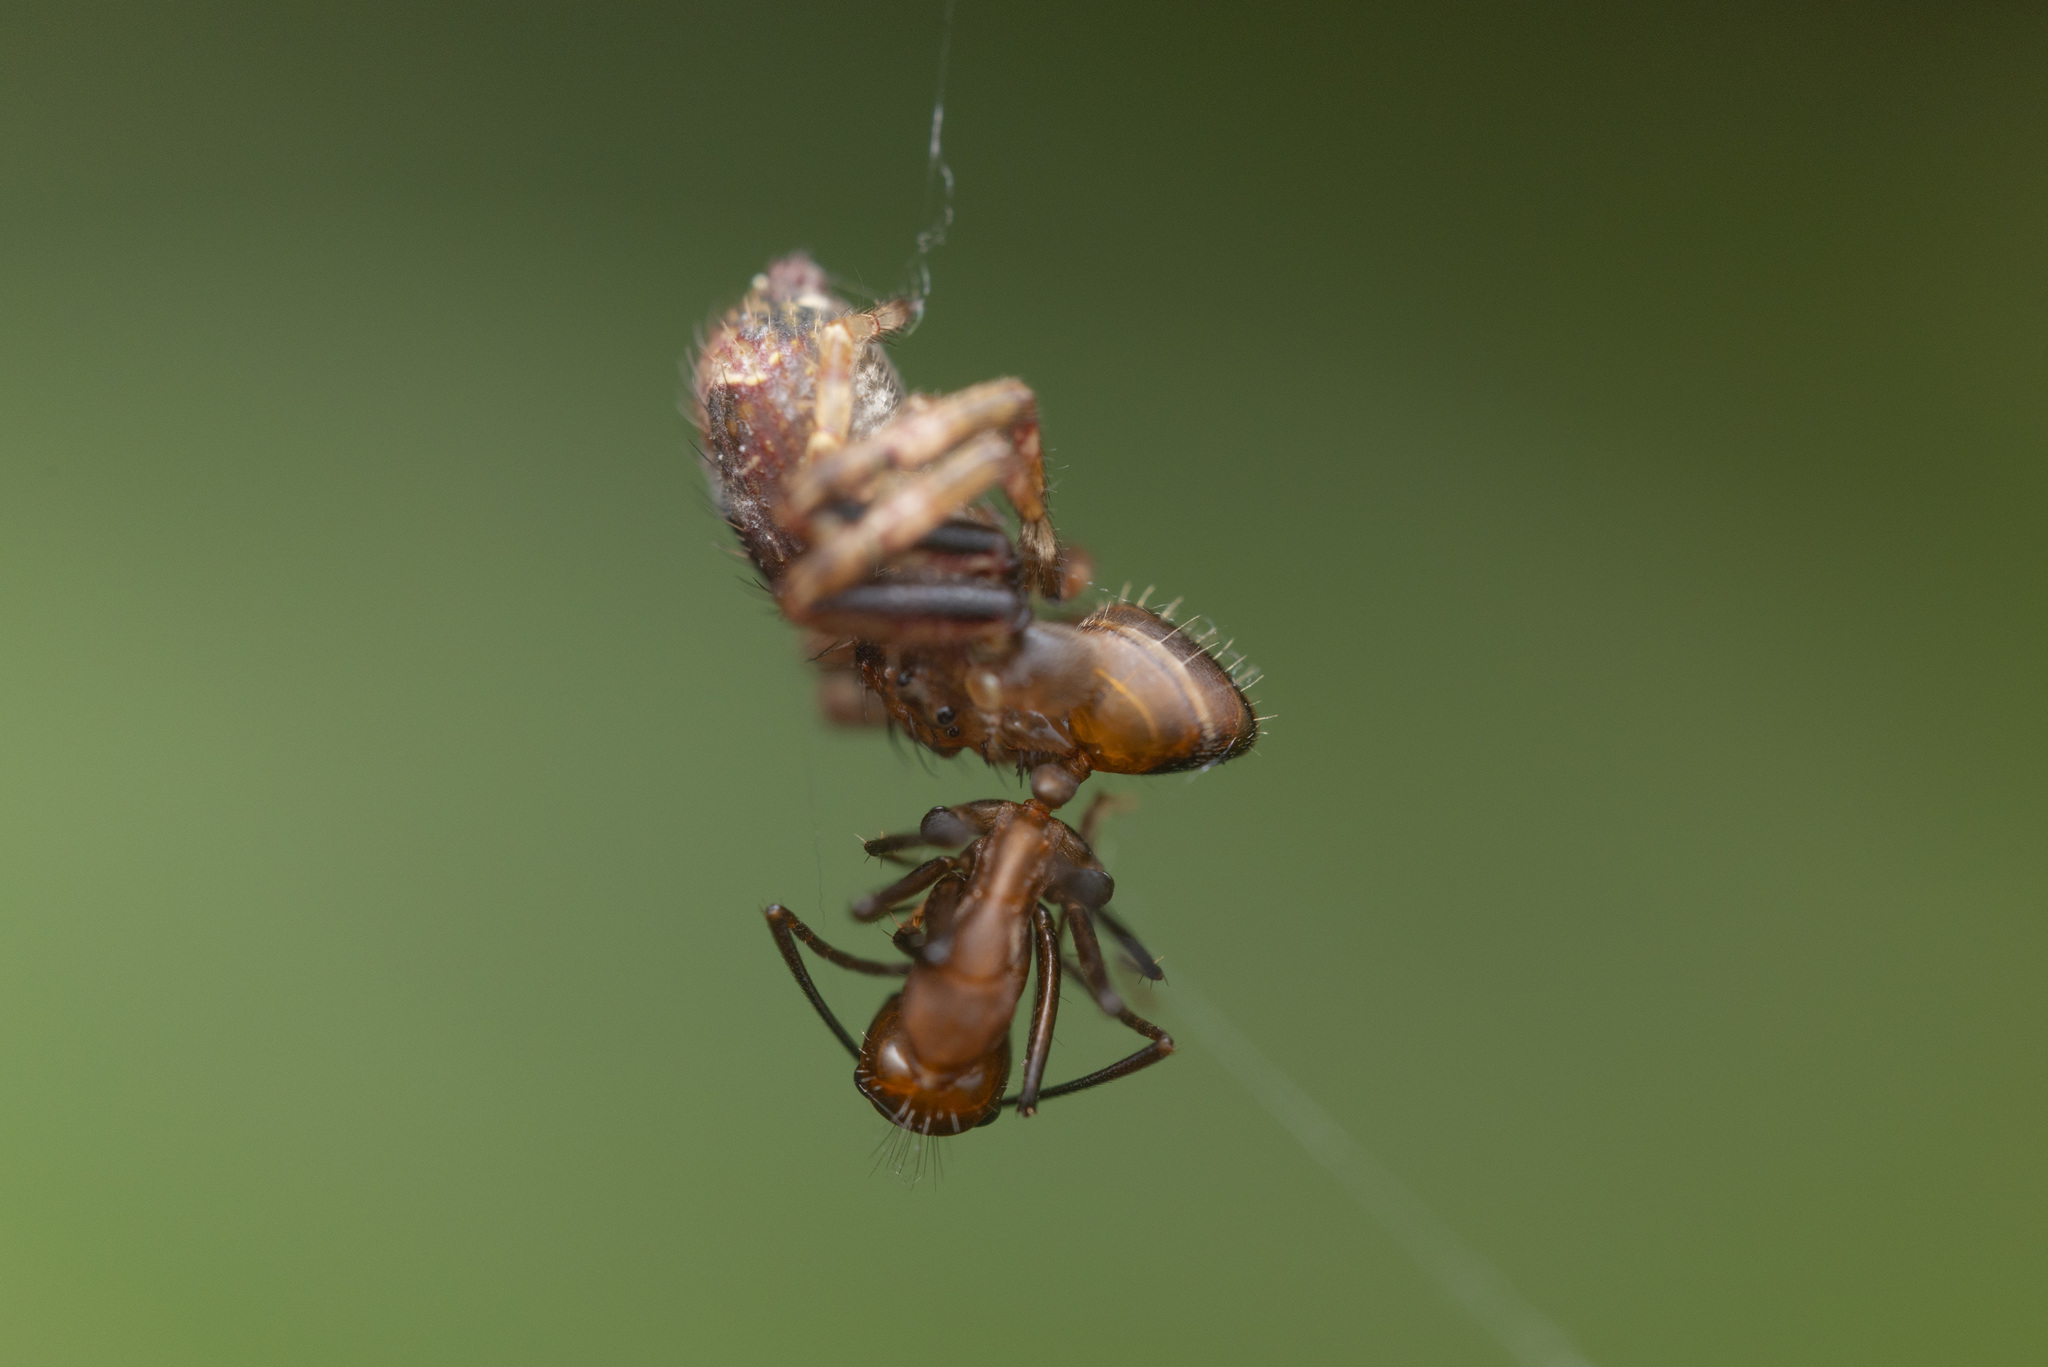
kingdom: Animalia
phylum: Arthropoda
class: Arachnida
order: Araneae
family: Thomisidae
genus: Strigoplus
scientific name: Strigoplus guizhouensis
